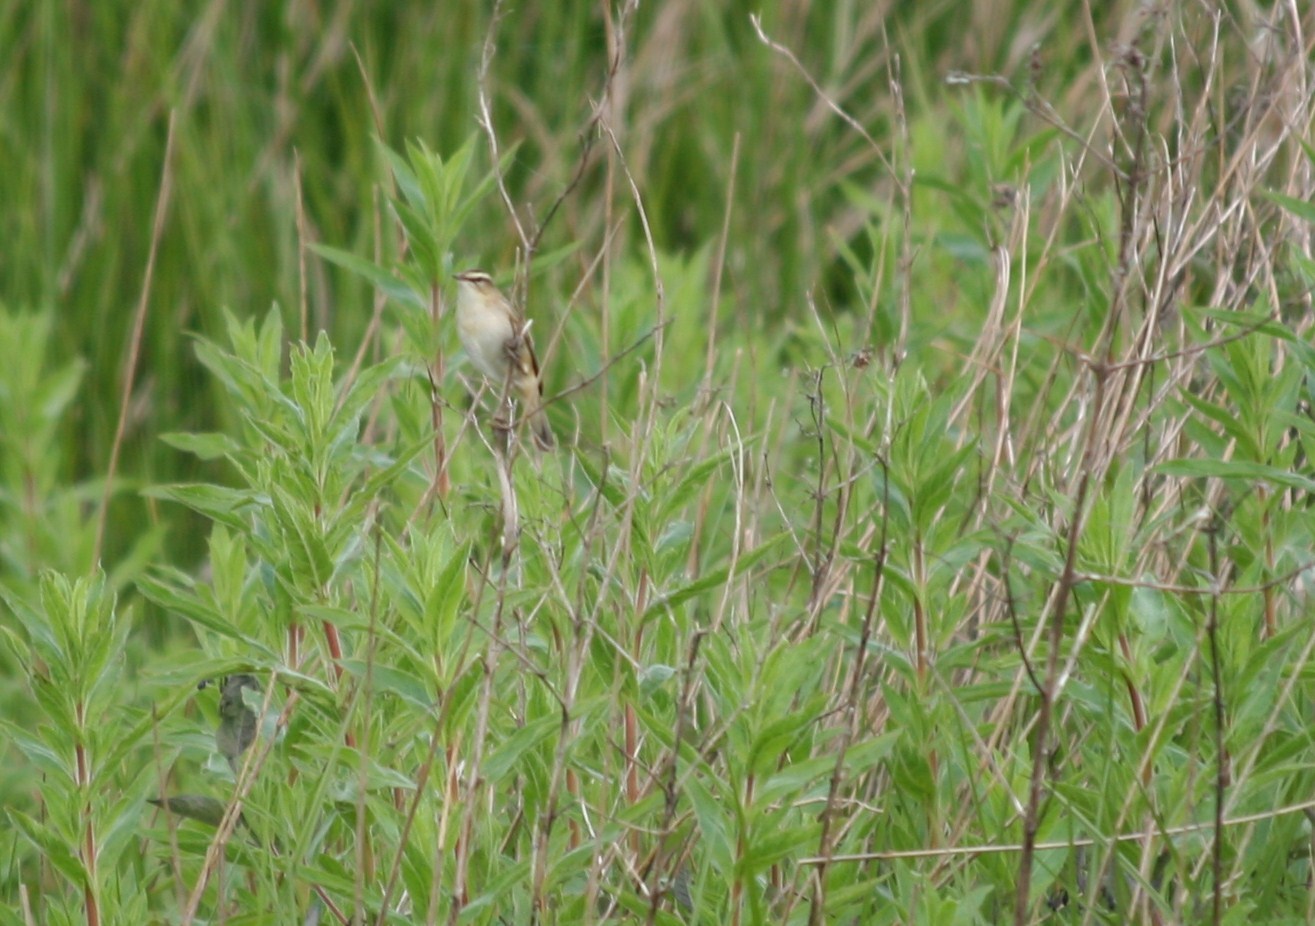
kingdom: Animalia
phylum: Chordata
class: Aves
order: Passeriformes
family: Acrocephalidae
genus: Acrocephalus
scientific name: Acrocephalus schoenobaenus
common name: Sedge warbler
